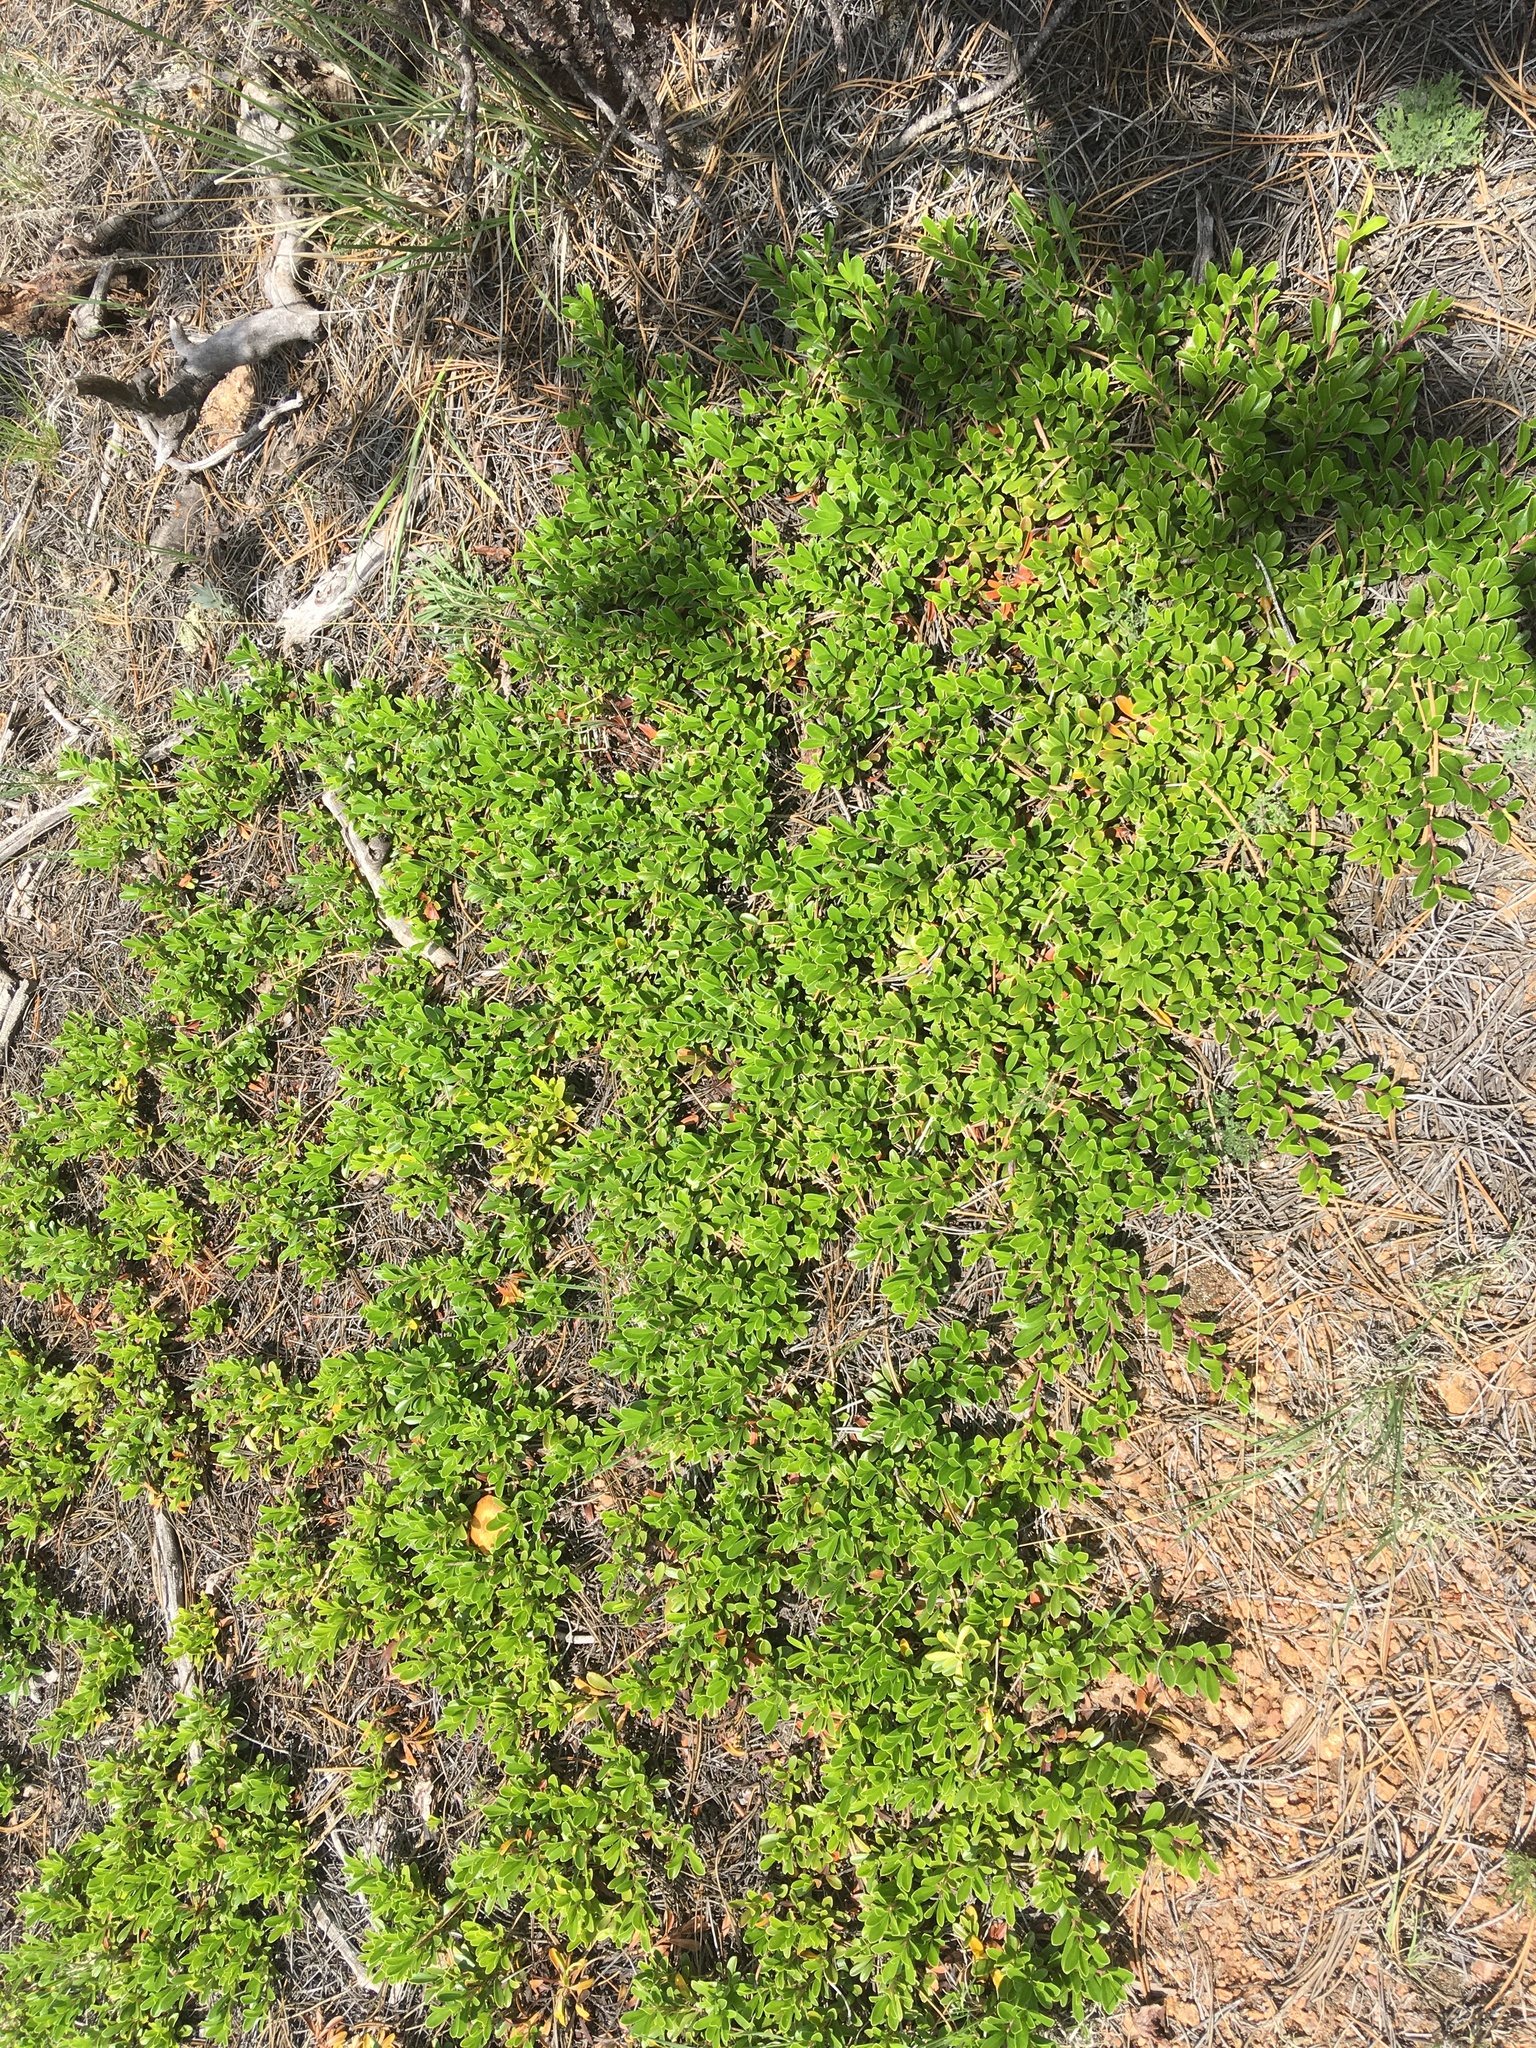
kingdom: Plantae
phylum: Tracheophyta
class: Magnoliopsida
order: Ericales
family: Ericaceae
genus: Arctostaphylos
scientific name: Arctostaphylos uva-ursi
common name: Bearberry
